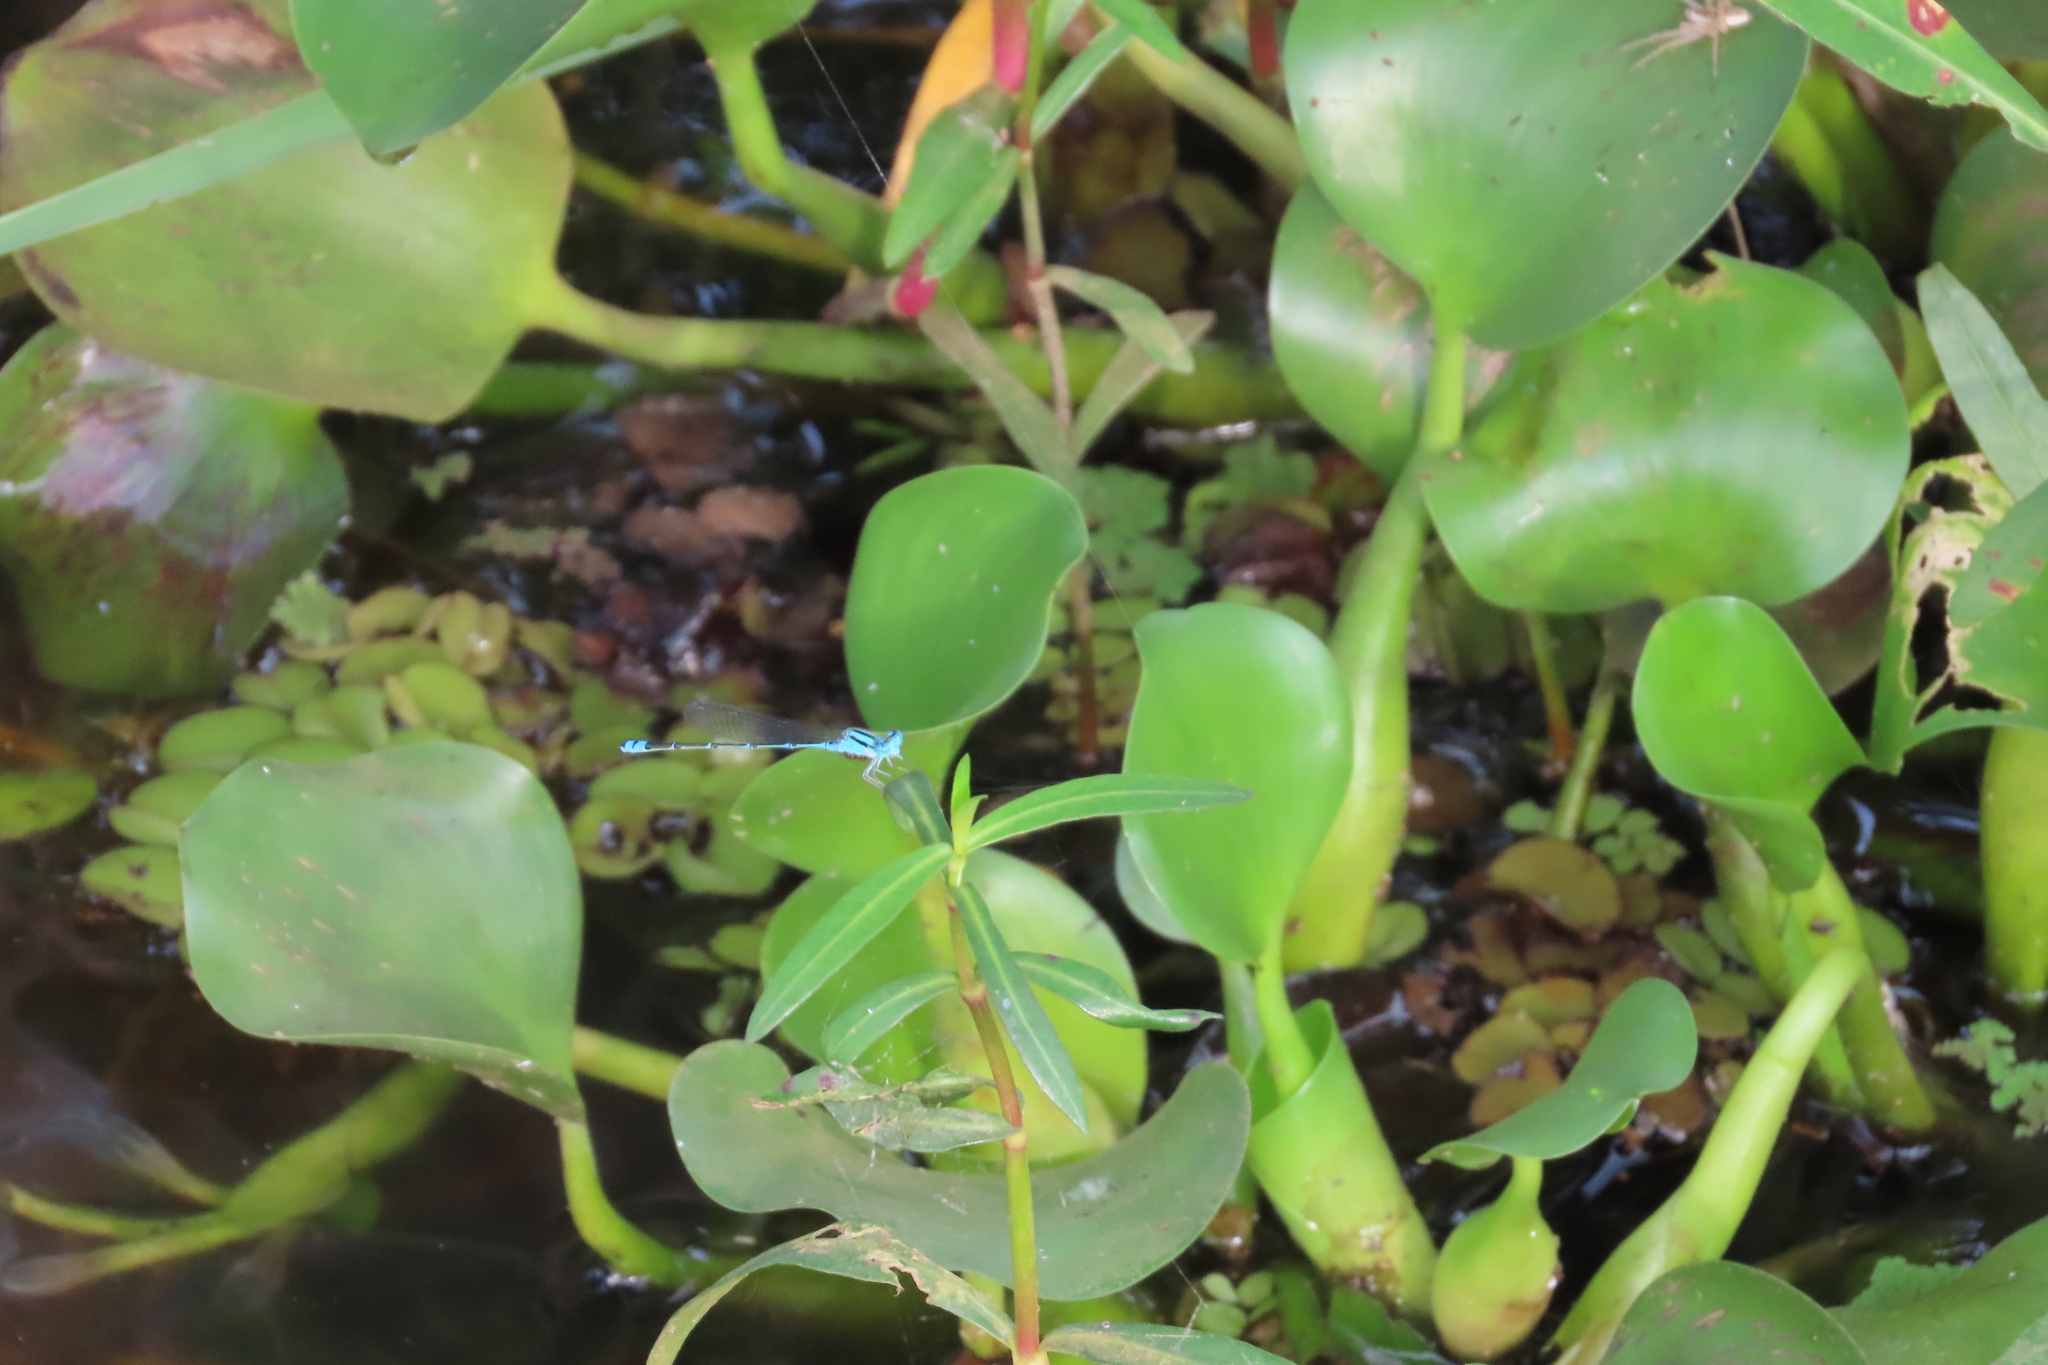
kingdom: Animalia
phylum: Arthropoda
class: Insecta
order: Odonata
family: Coenagrionidae
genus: Pseudagrion
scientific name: Pseudagrion microcephalum
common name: Blue riverdamsel
